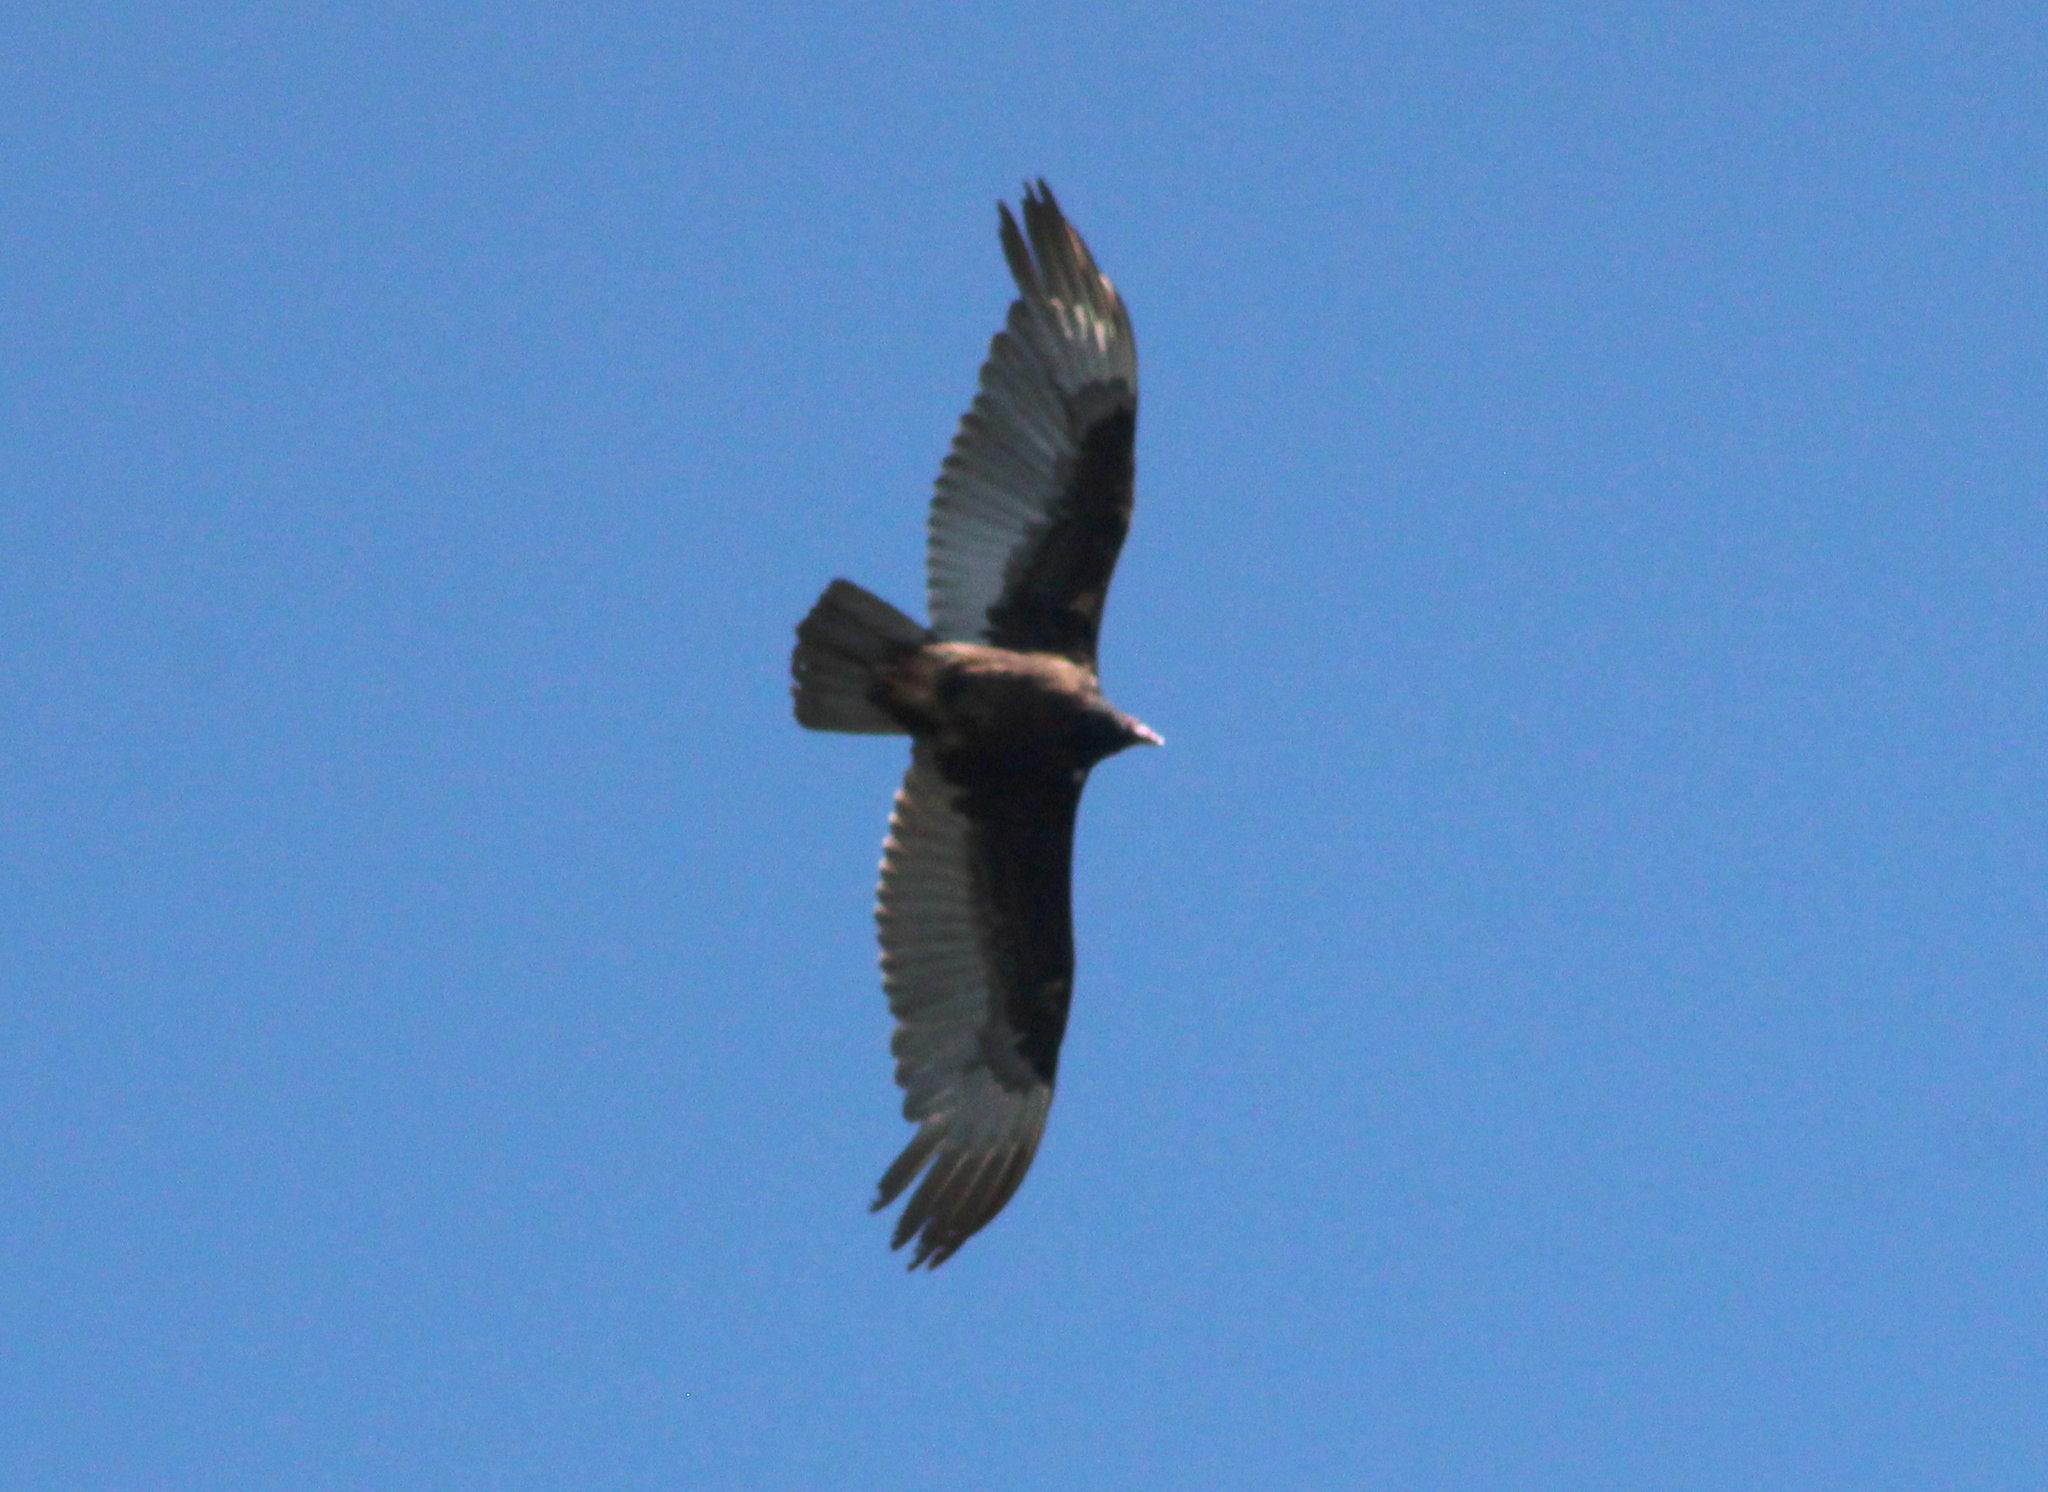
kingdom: Animalia
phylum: Chordata
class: Aves
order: Accipitriformes
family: Cathartidae
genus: Cathartes
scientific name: Cathartes aura
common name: Turkey vulture
